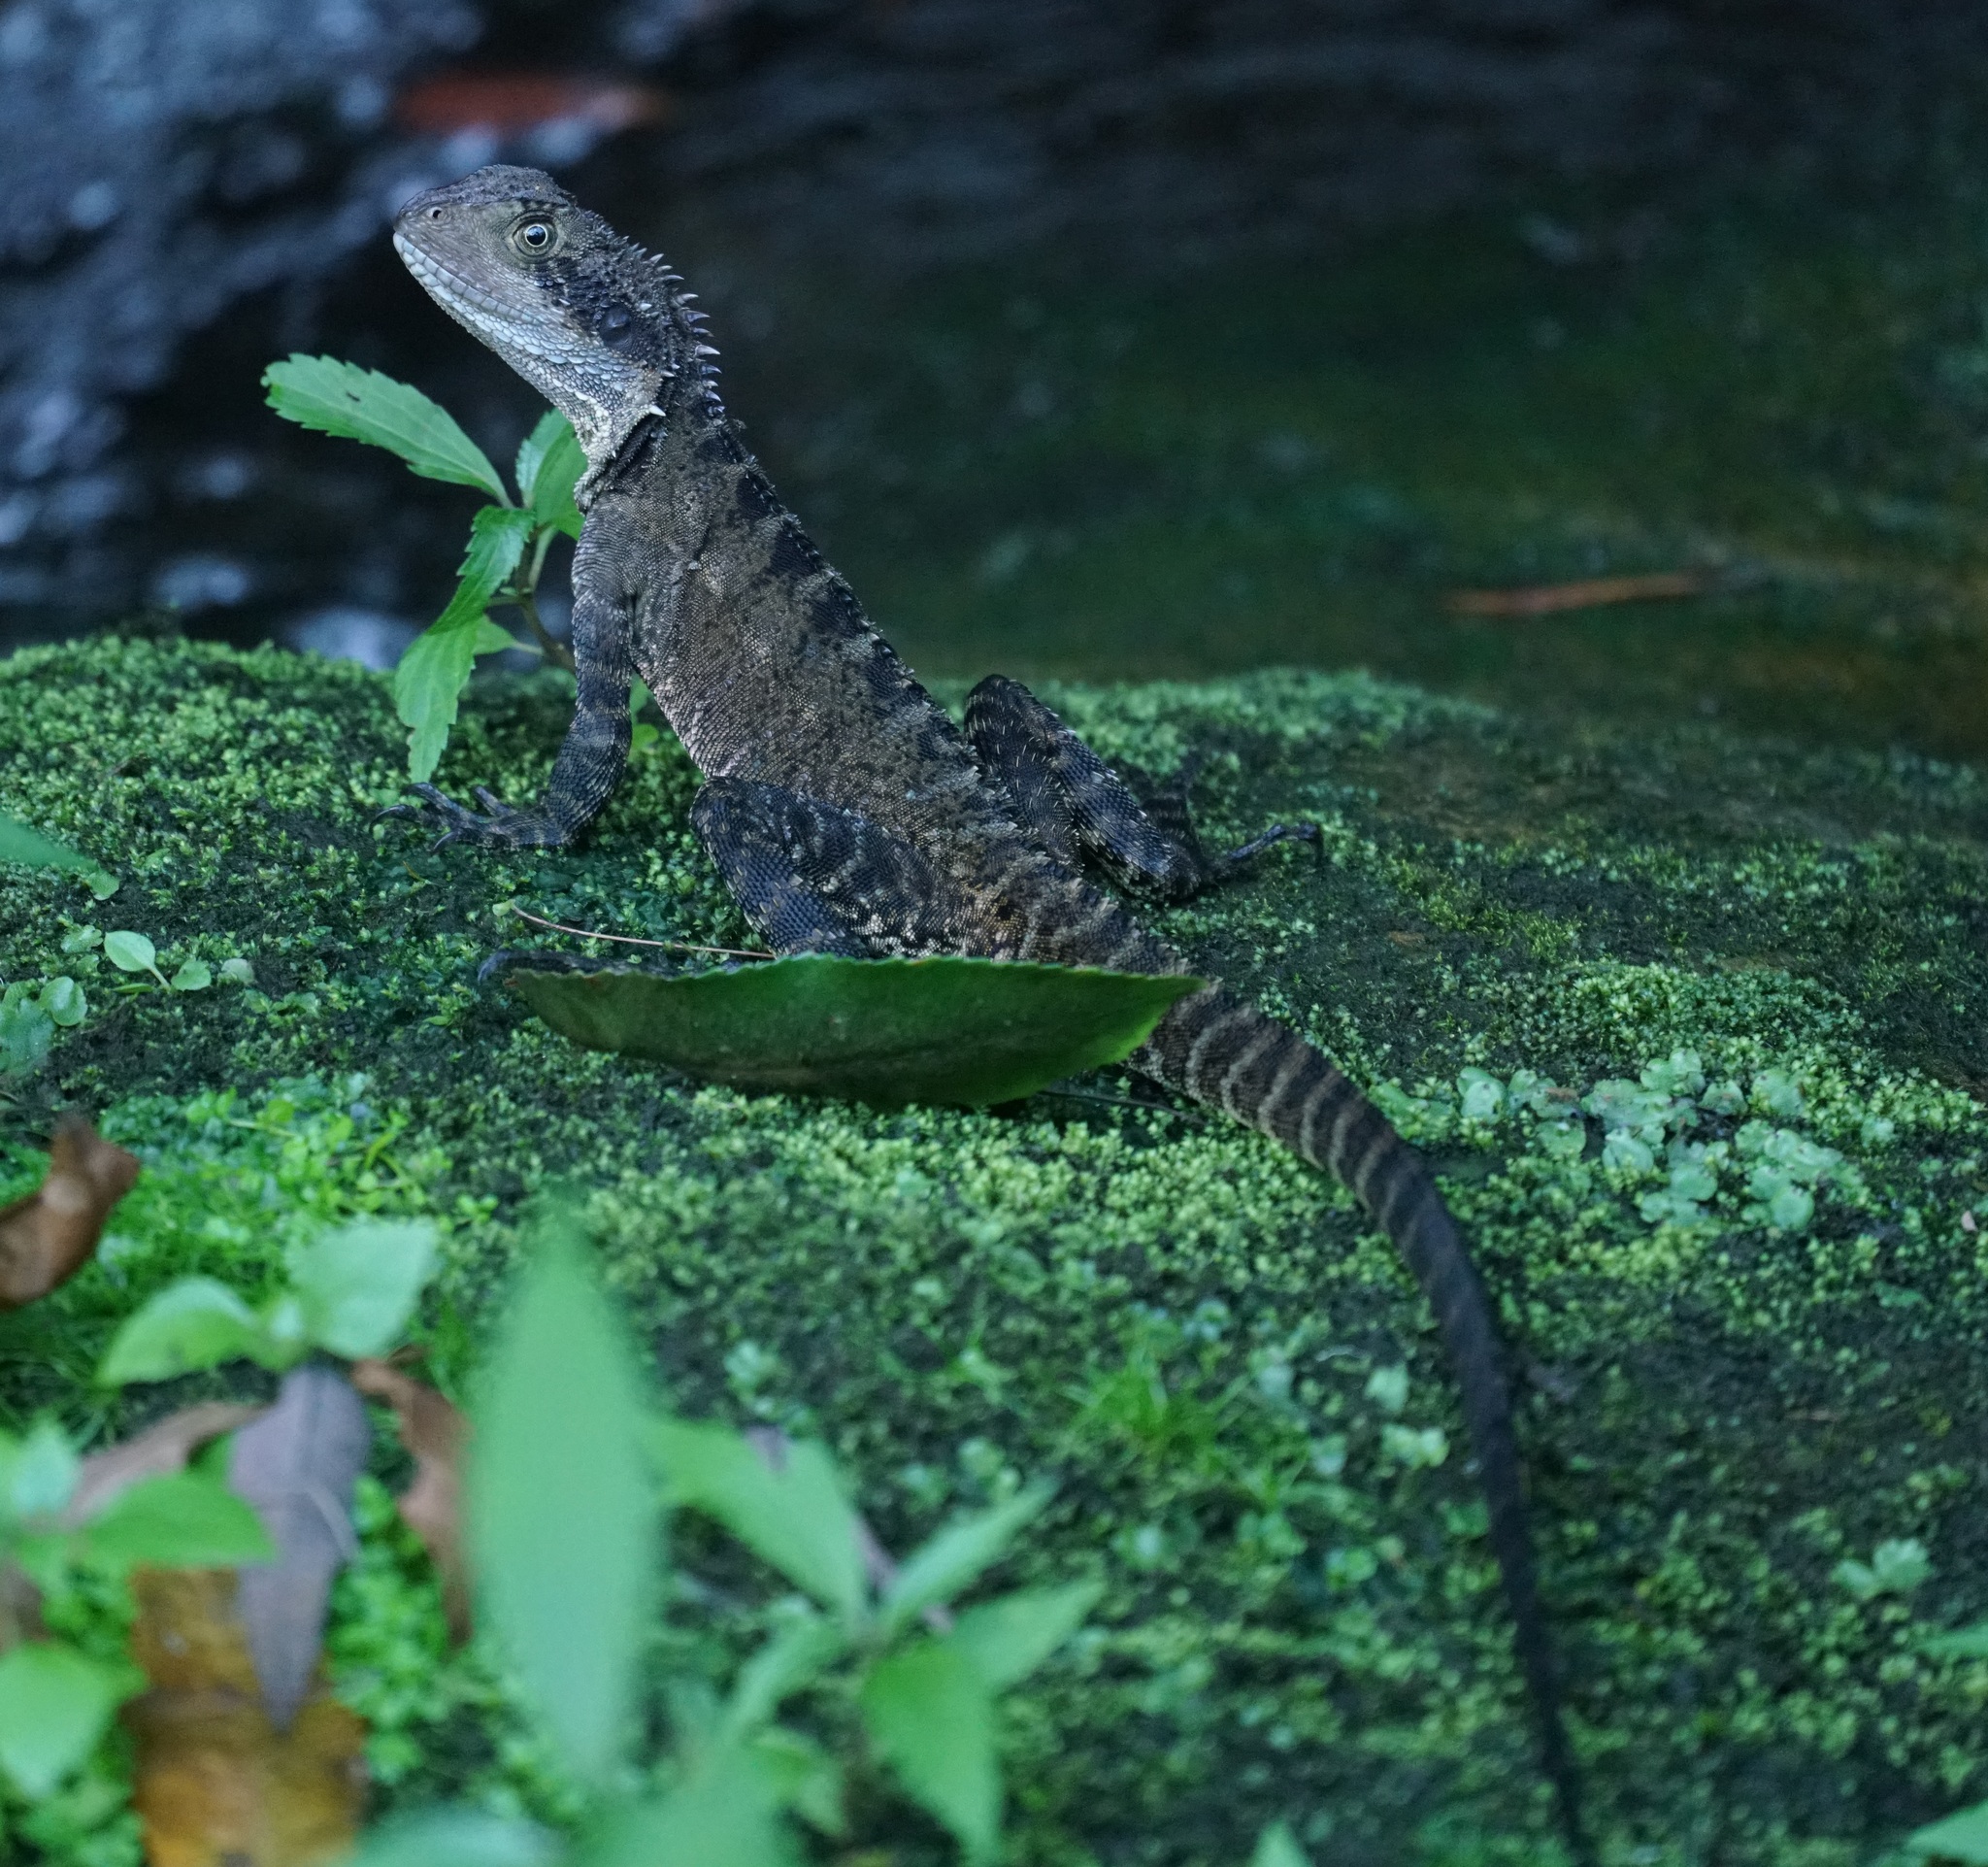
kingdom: Animalia
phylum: Chordata
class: Squamata
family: Agamidae
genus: Intellagama
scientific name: Intellagama lesueurii
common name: Eastern water dragon
